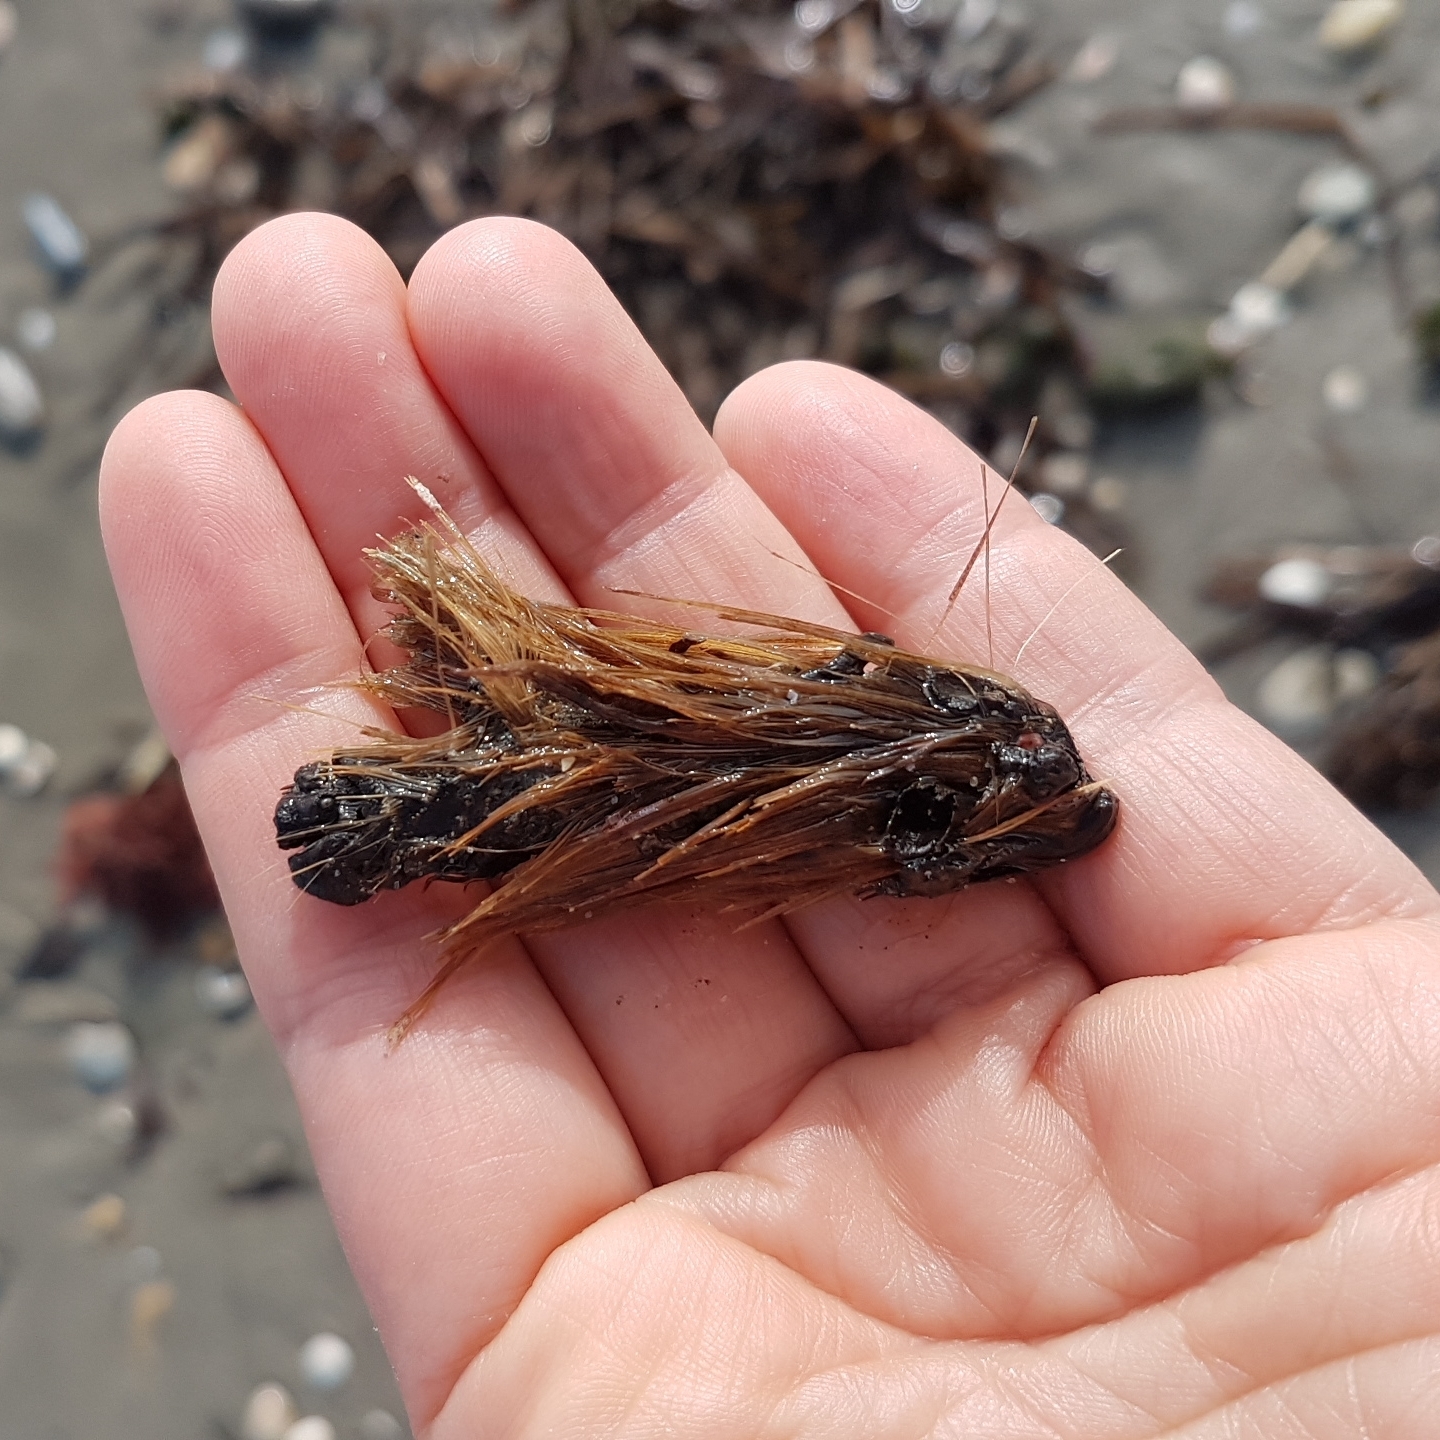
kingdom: Plantae
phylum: Tracheophyta
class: Liliopsida
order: Alismatales
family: Posidoniaceae
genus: Posidonia
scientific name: Posidonia oceanica
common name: Mediterranean tapeweed
